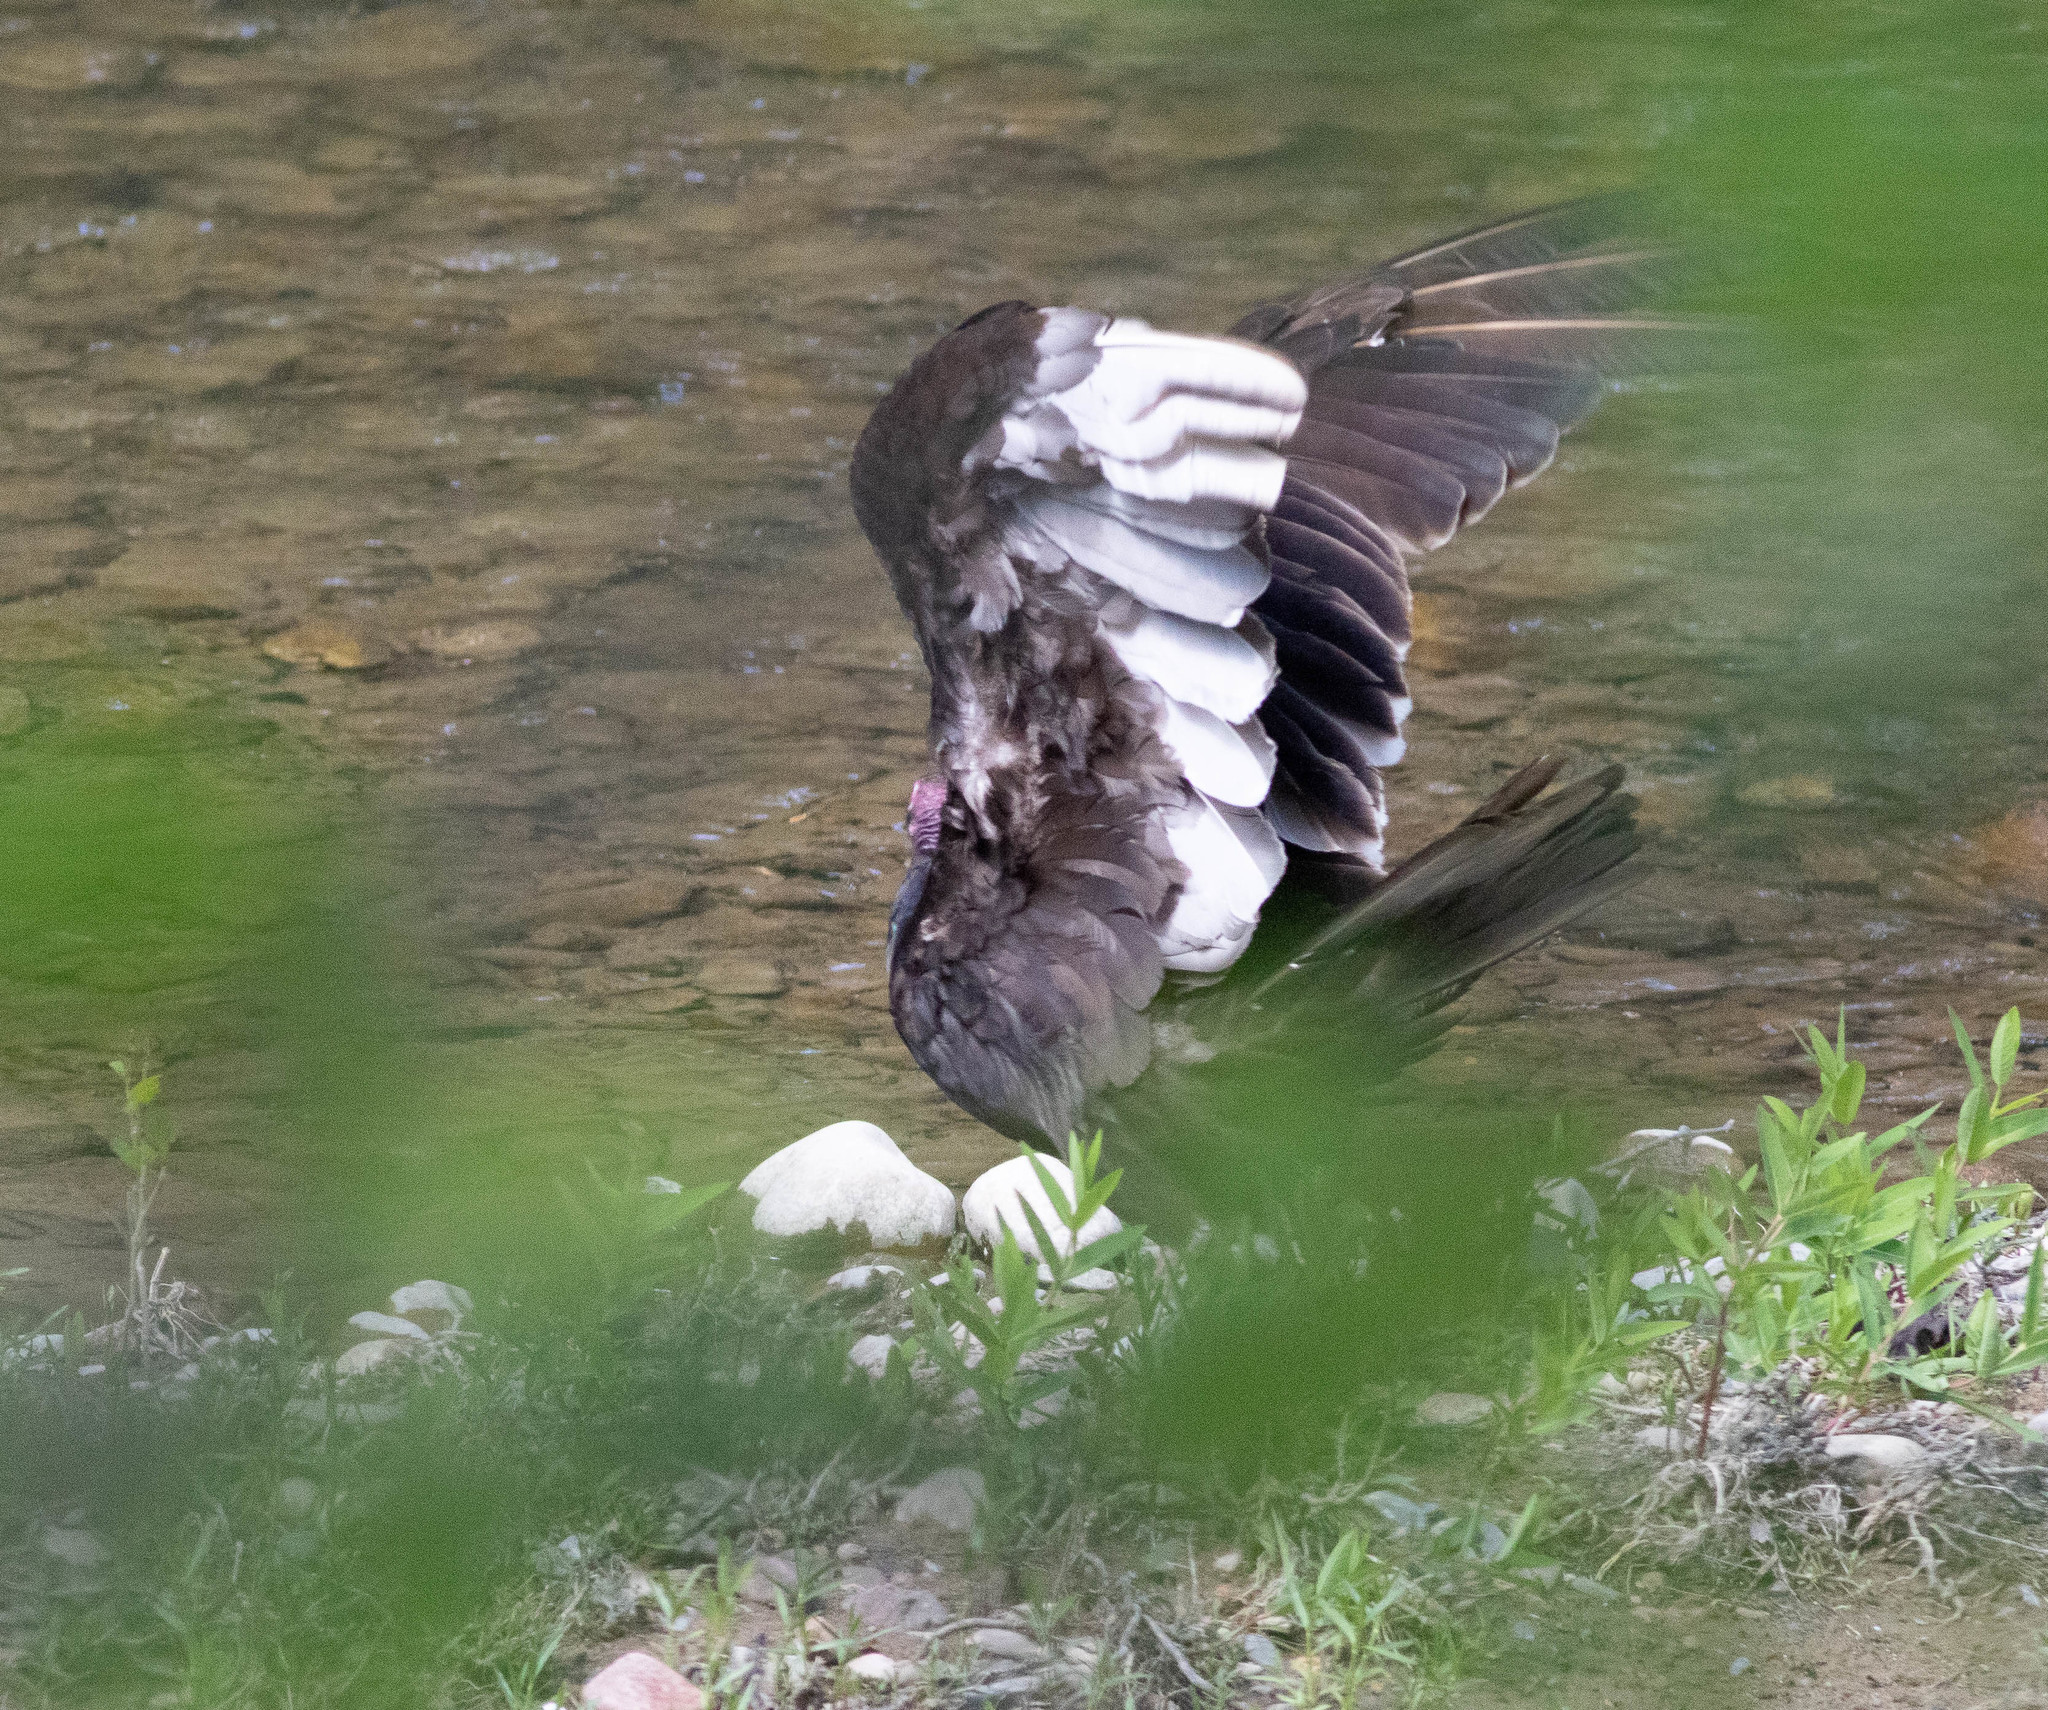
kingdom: Animalia
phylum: Chordata
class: Aves
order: Accipitriformes
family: Cathartidae
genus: Cathartes
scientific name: Cathartes aura
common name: Turkey vulture
